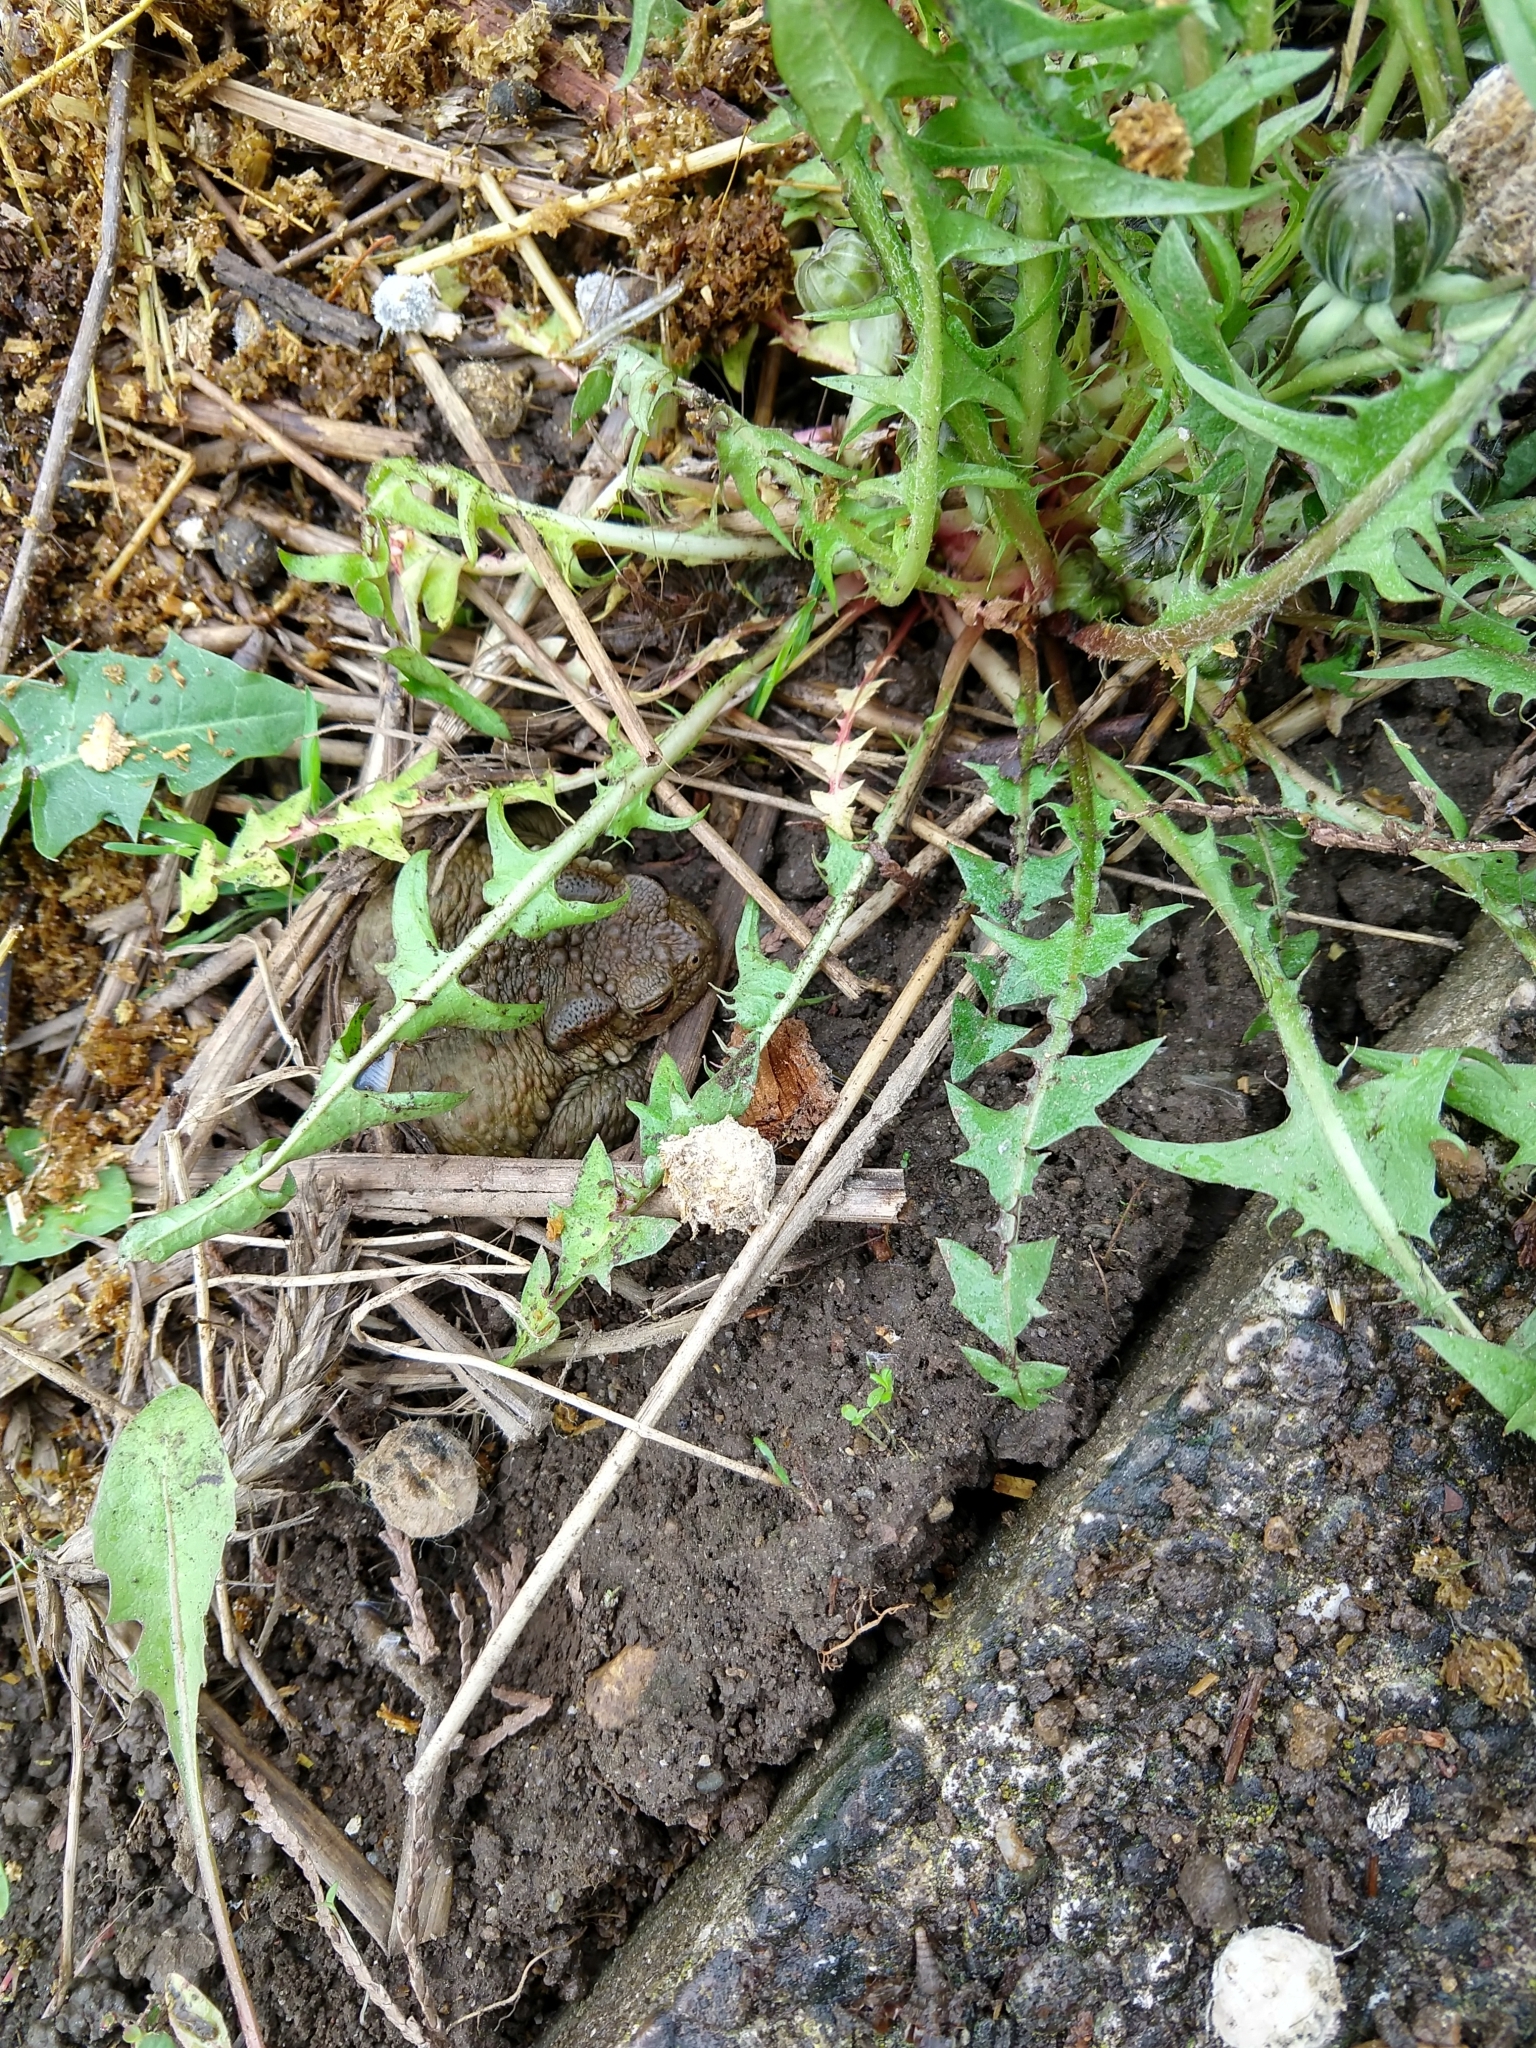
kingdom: Animalia
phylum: Chordata
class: Amphibia
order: Anura
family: Bufonidae
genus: Bufo
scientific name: Bufo bufo
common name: Common toad
